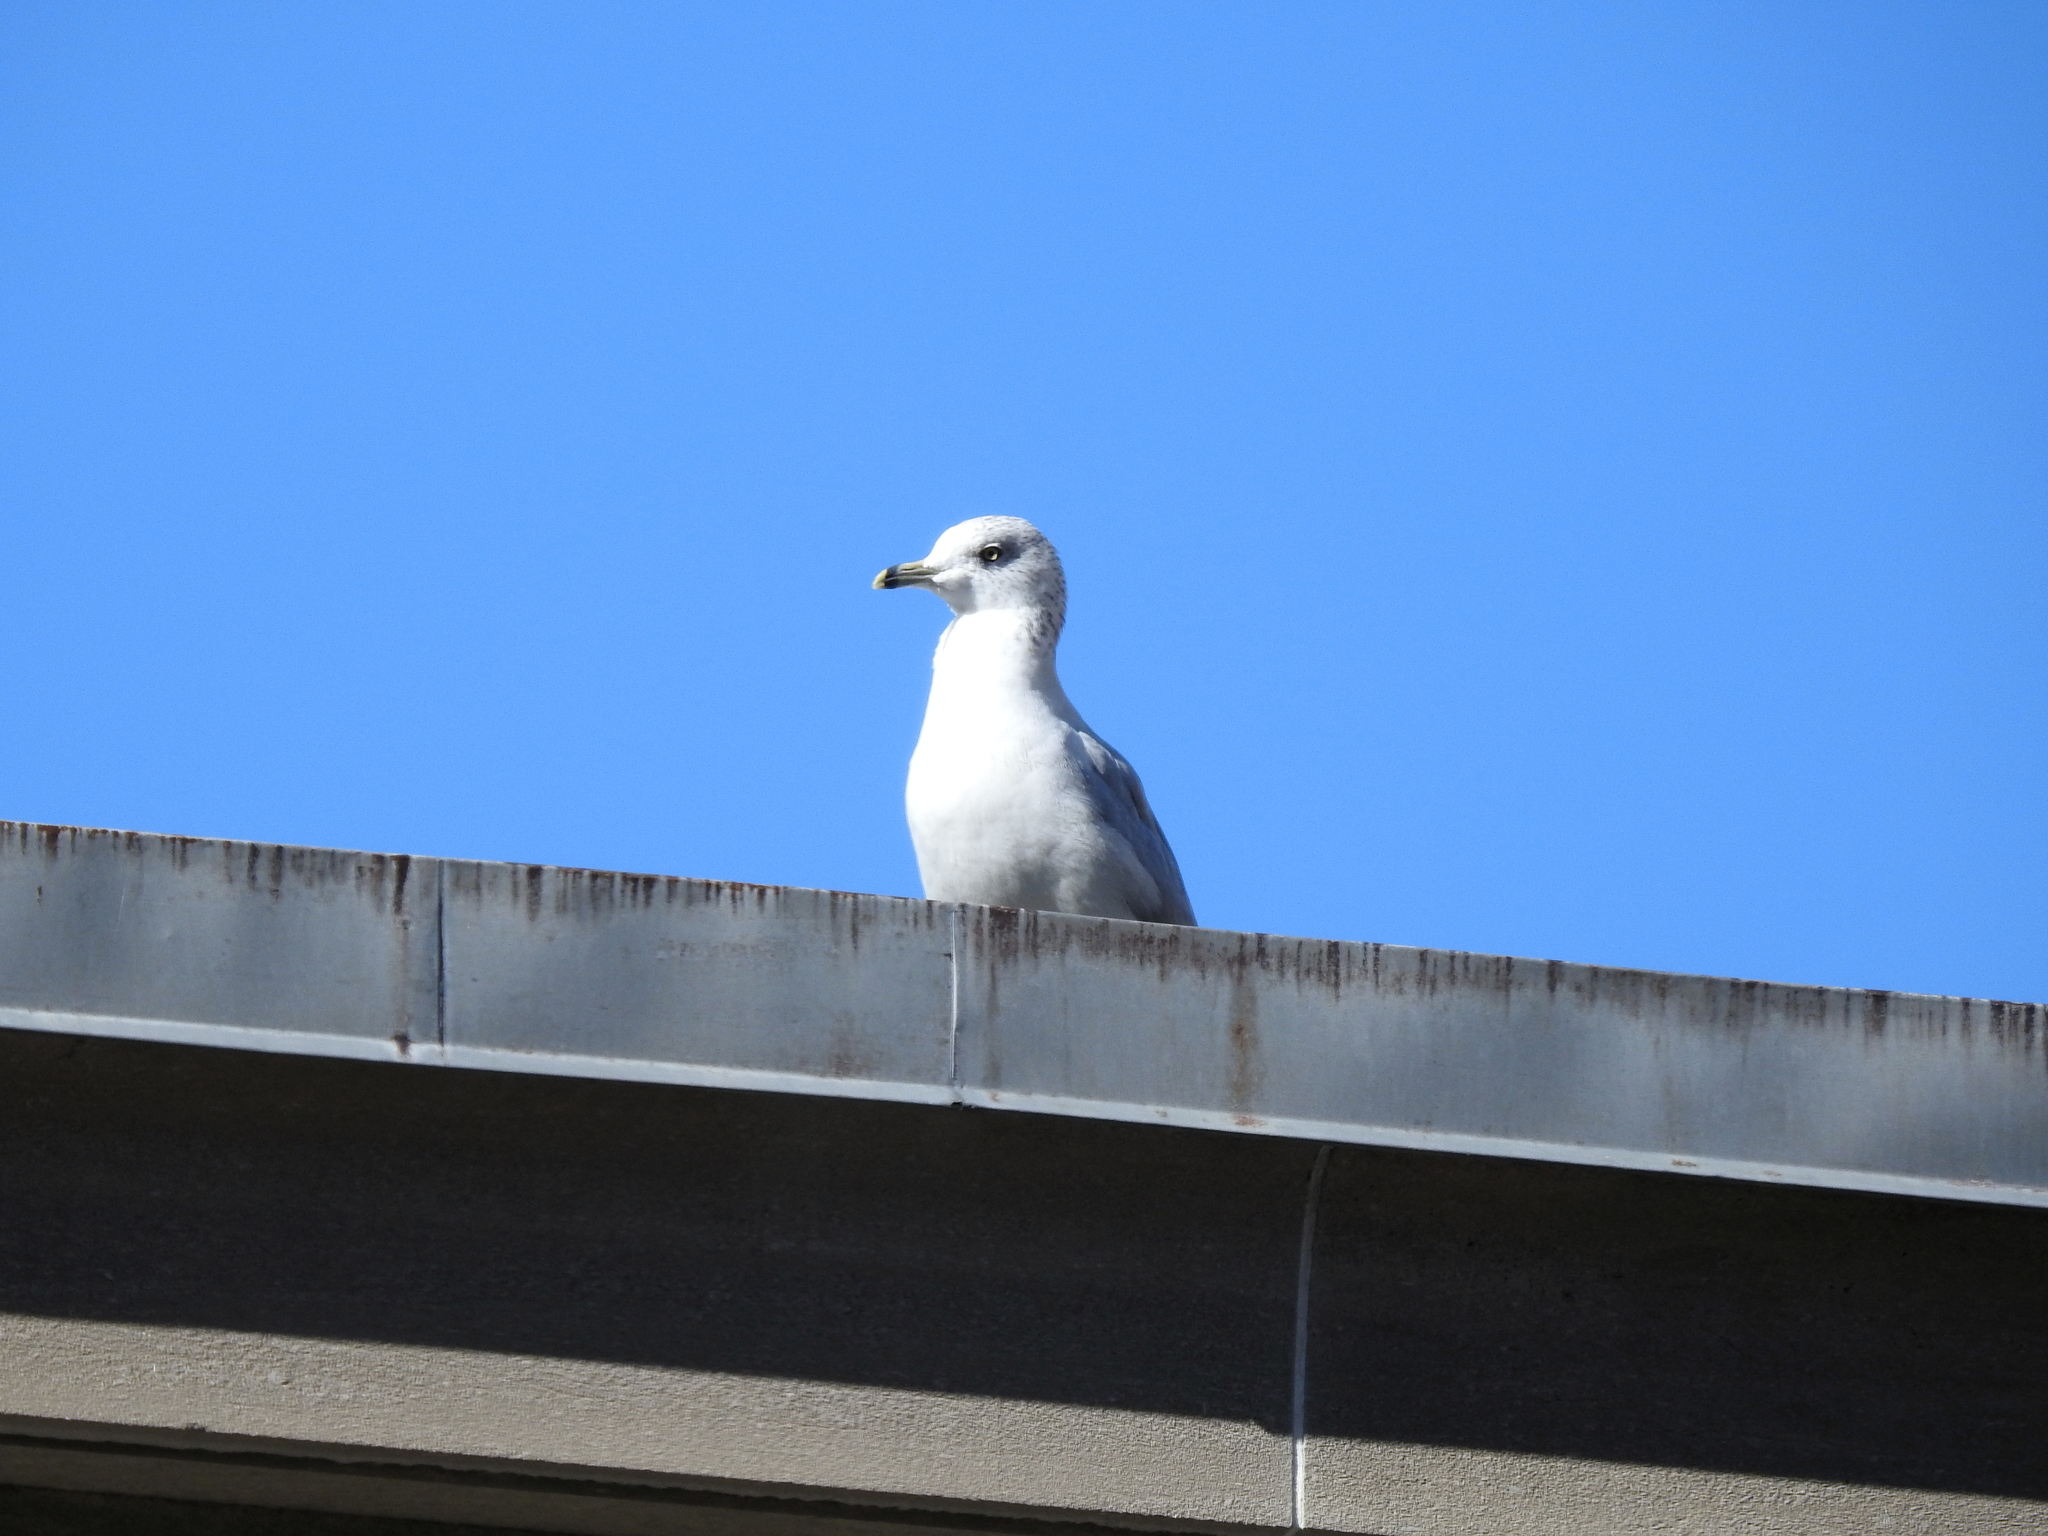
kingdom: Animalia
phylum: Chordata
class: Aves
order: Charadriiformes
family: Laridae
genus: Larus
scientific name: Larus delawarensis
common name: Ring-billed gull
